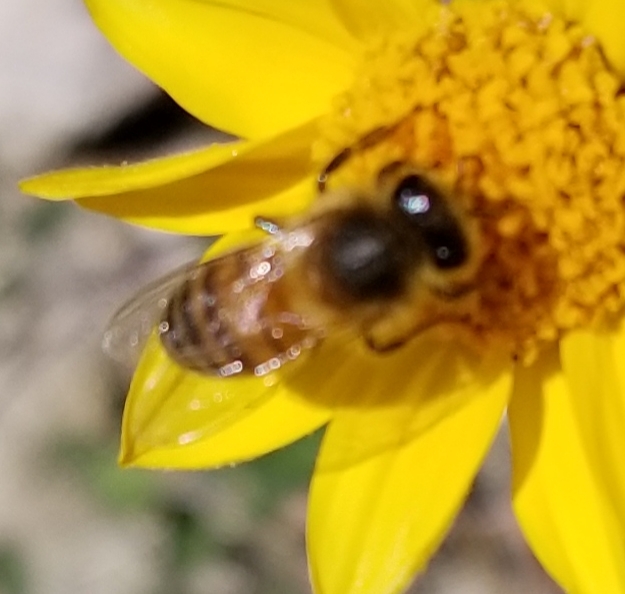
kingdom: Animalia
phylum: Arthropoda
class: Insecta
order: Hymenoptera
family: Apidae
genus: Apis
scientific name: Apis mellifera
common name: Honey bee
